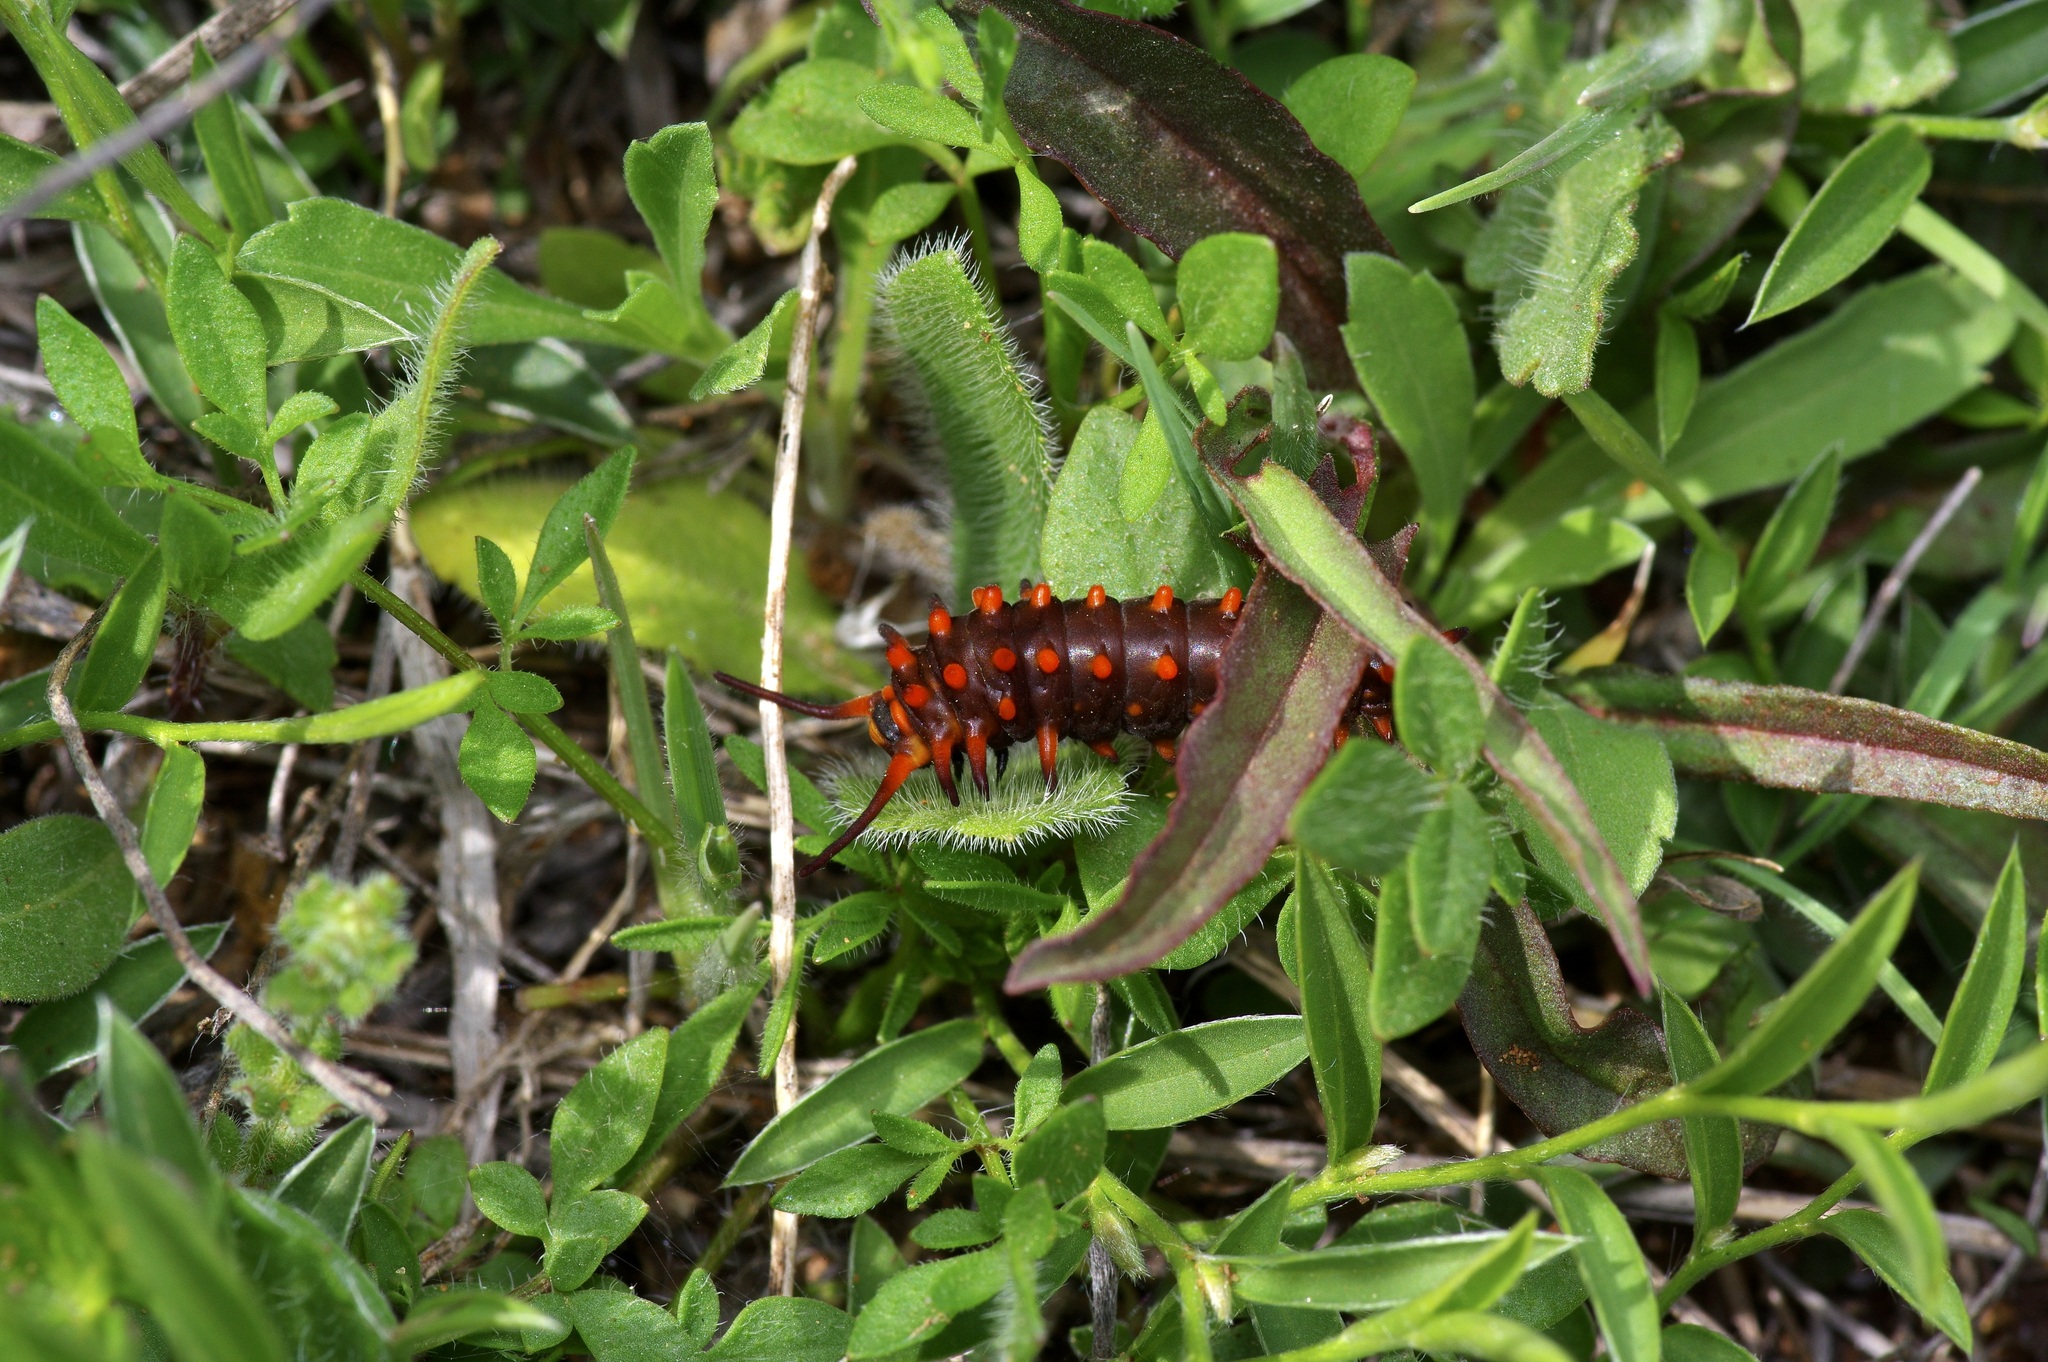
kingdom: Animalia
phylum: Arthropoda
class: Insecta
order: Lepidoptera
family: Papilionidae
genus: Battus
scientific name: Battus philenor
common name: Pipevine swallowtail
